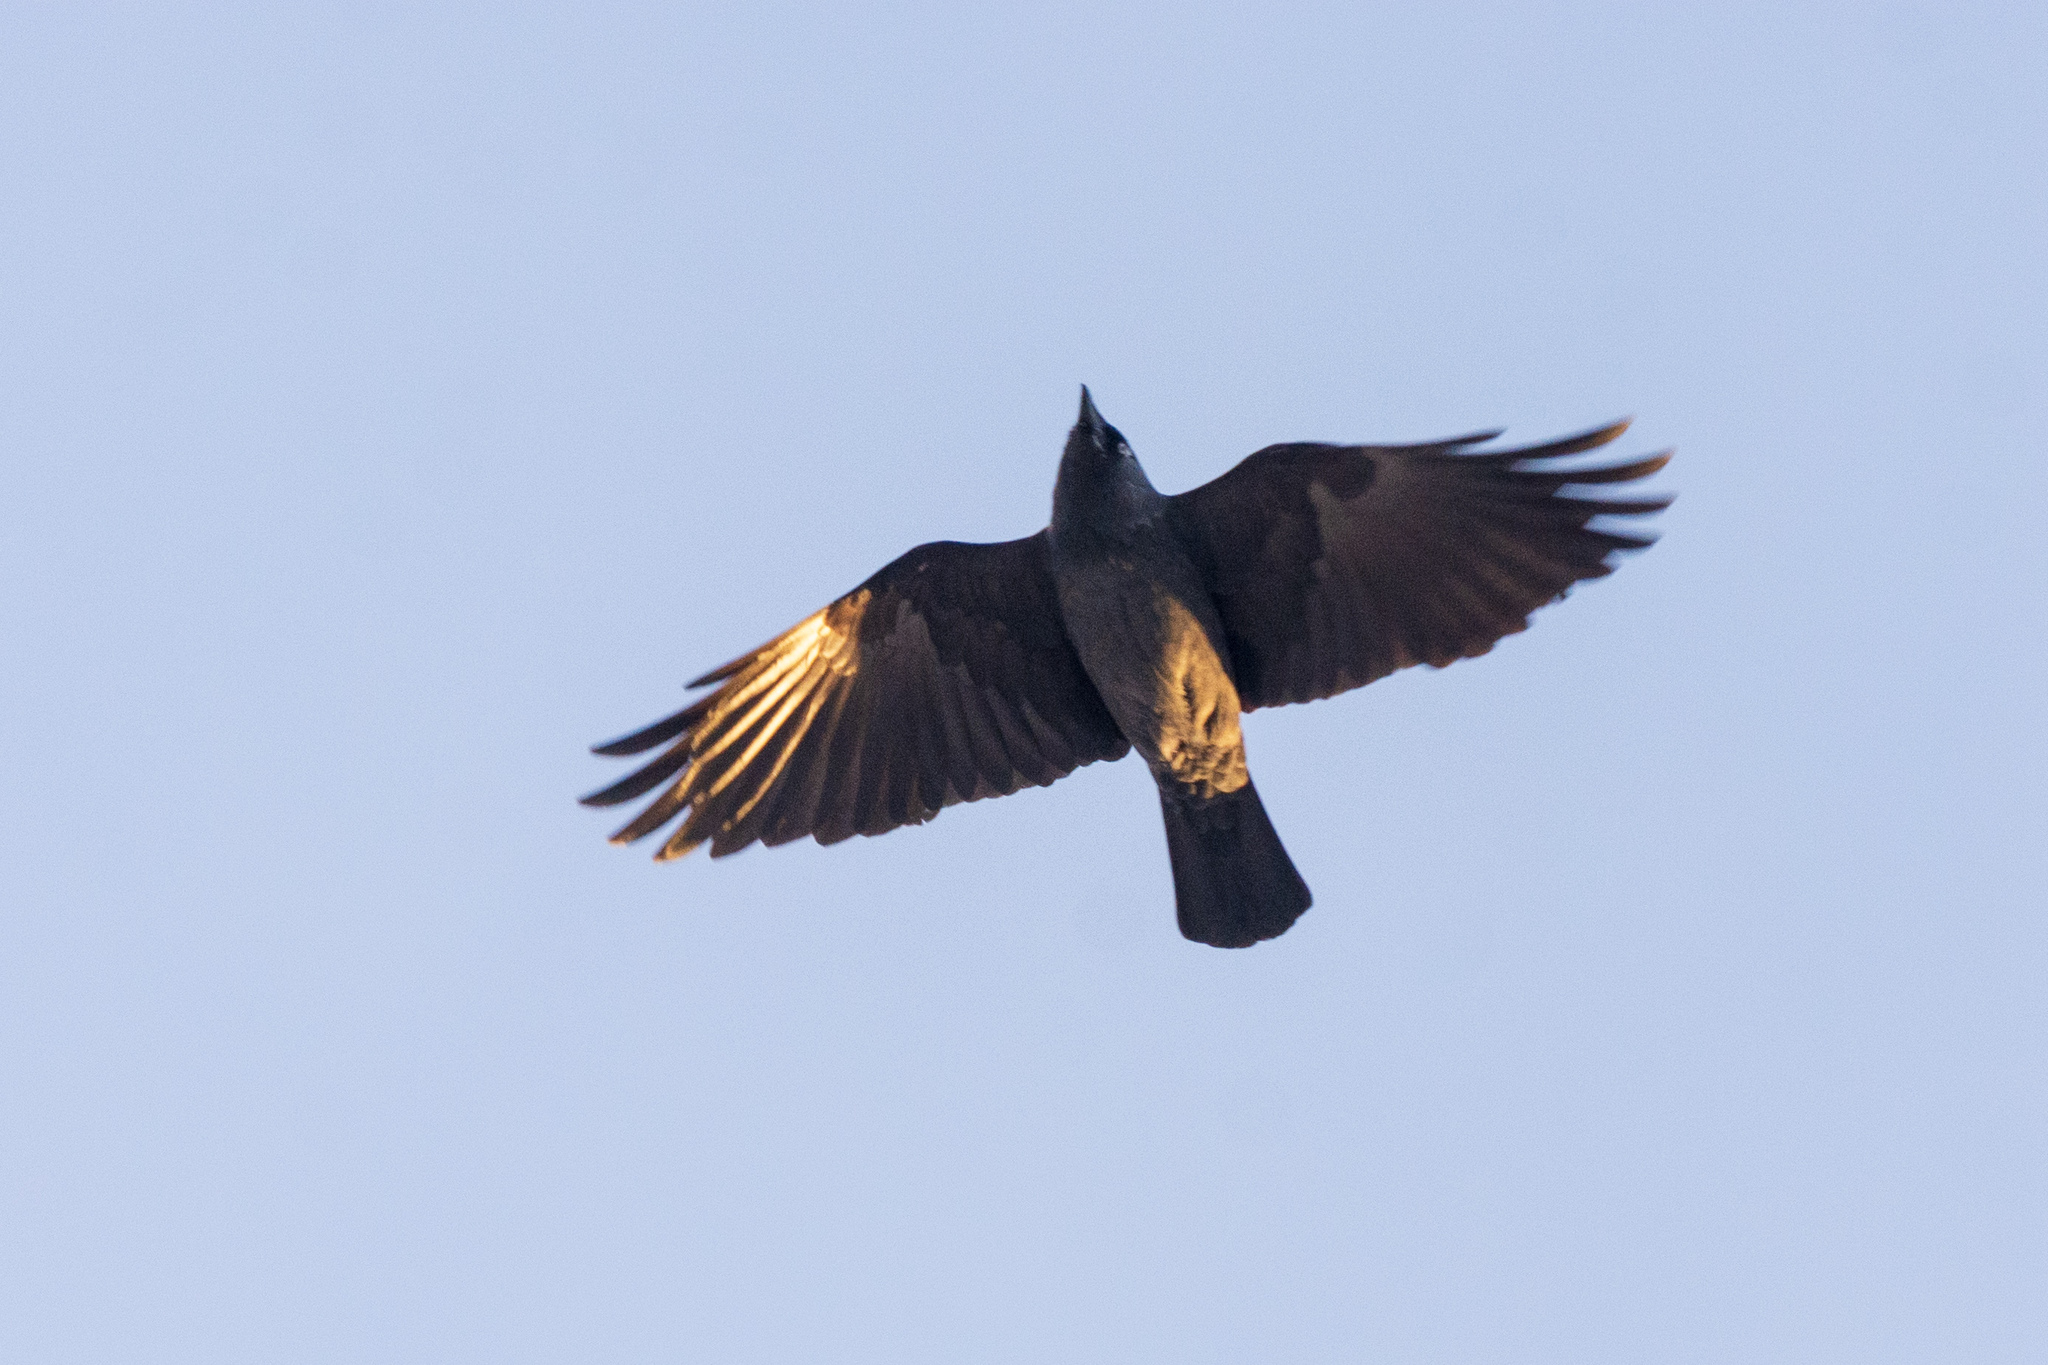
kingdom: Animalia
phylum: Chordata
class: Aves
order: Passeriformes
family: Corvidae
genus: Coloeus
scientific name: Coloeus monedula
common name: Western jackdaw
